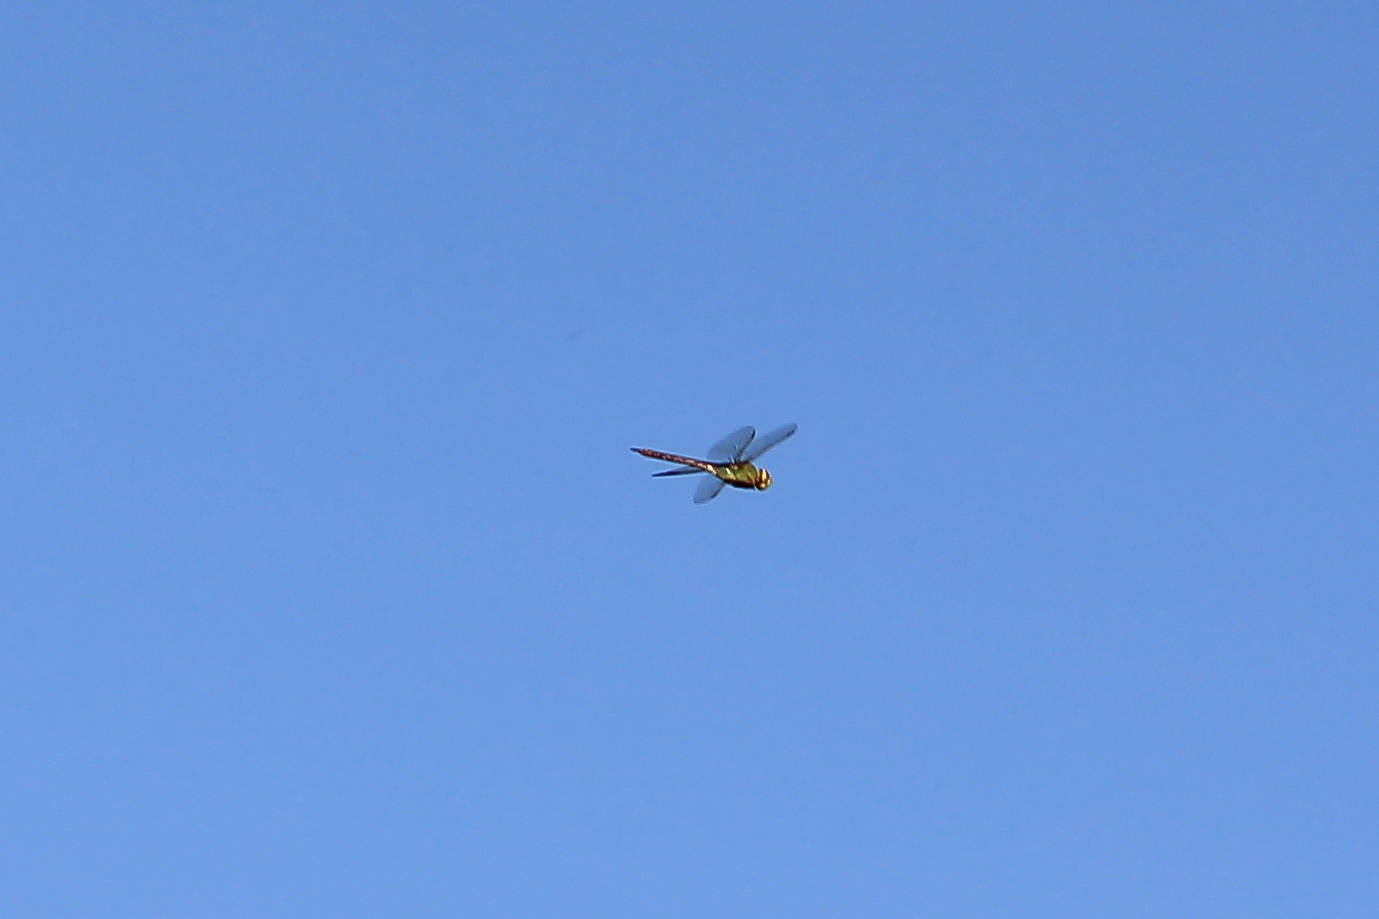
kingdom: Animalia
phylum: Arthropoda
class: Insecta
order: Odonata
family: Aeshnidae
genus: Anax
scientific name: Anax junius
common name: Common green darner
